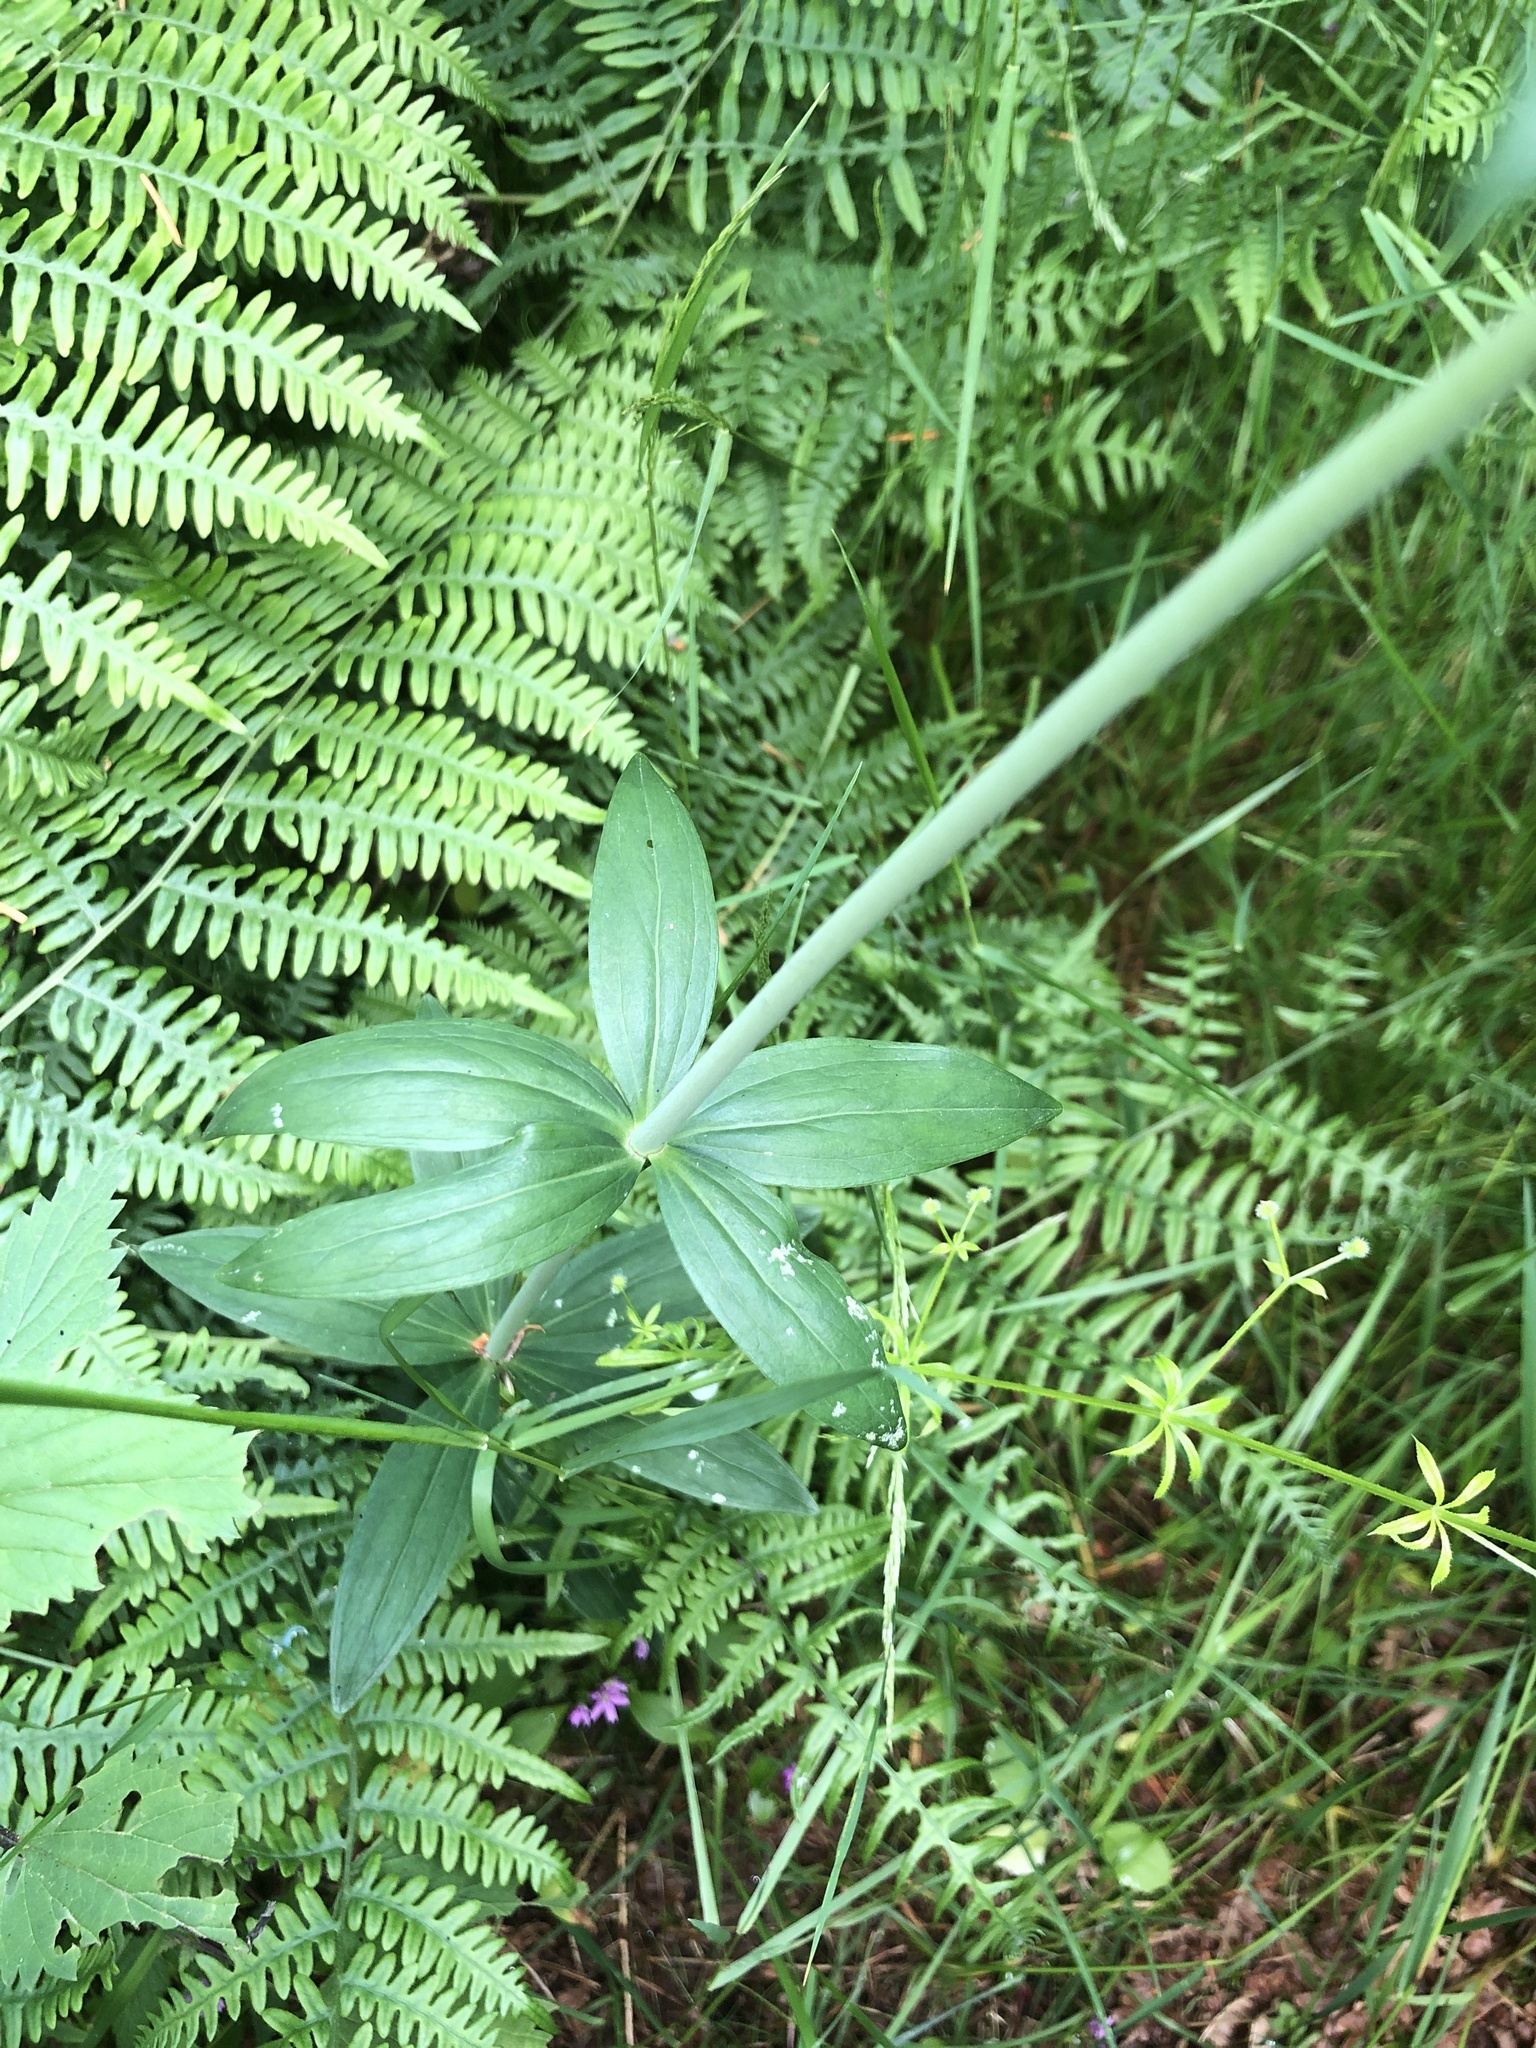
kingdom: Plantae
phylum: Tracheophyta
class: Liliopsida
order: Liliales
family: Liliaceae
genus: Lilium
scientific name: Lilium columbianum
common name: Columbia lily
